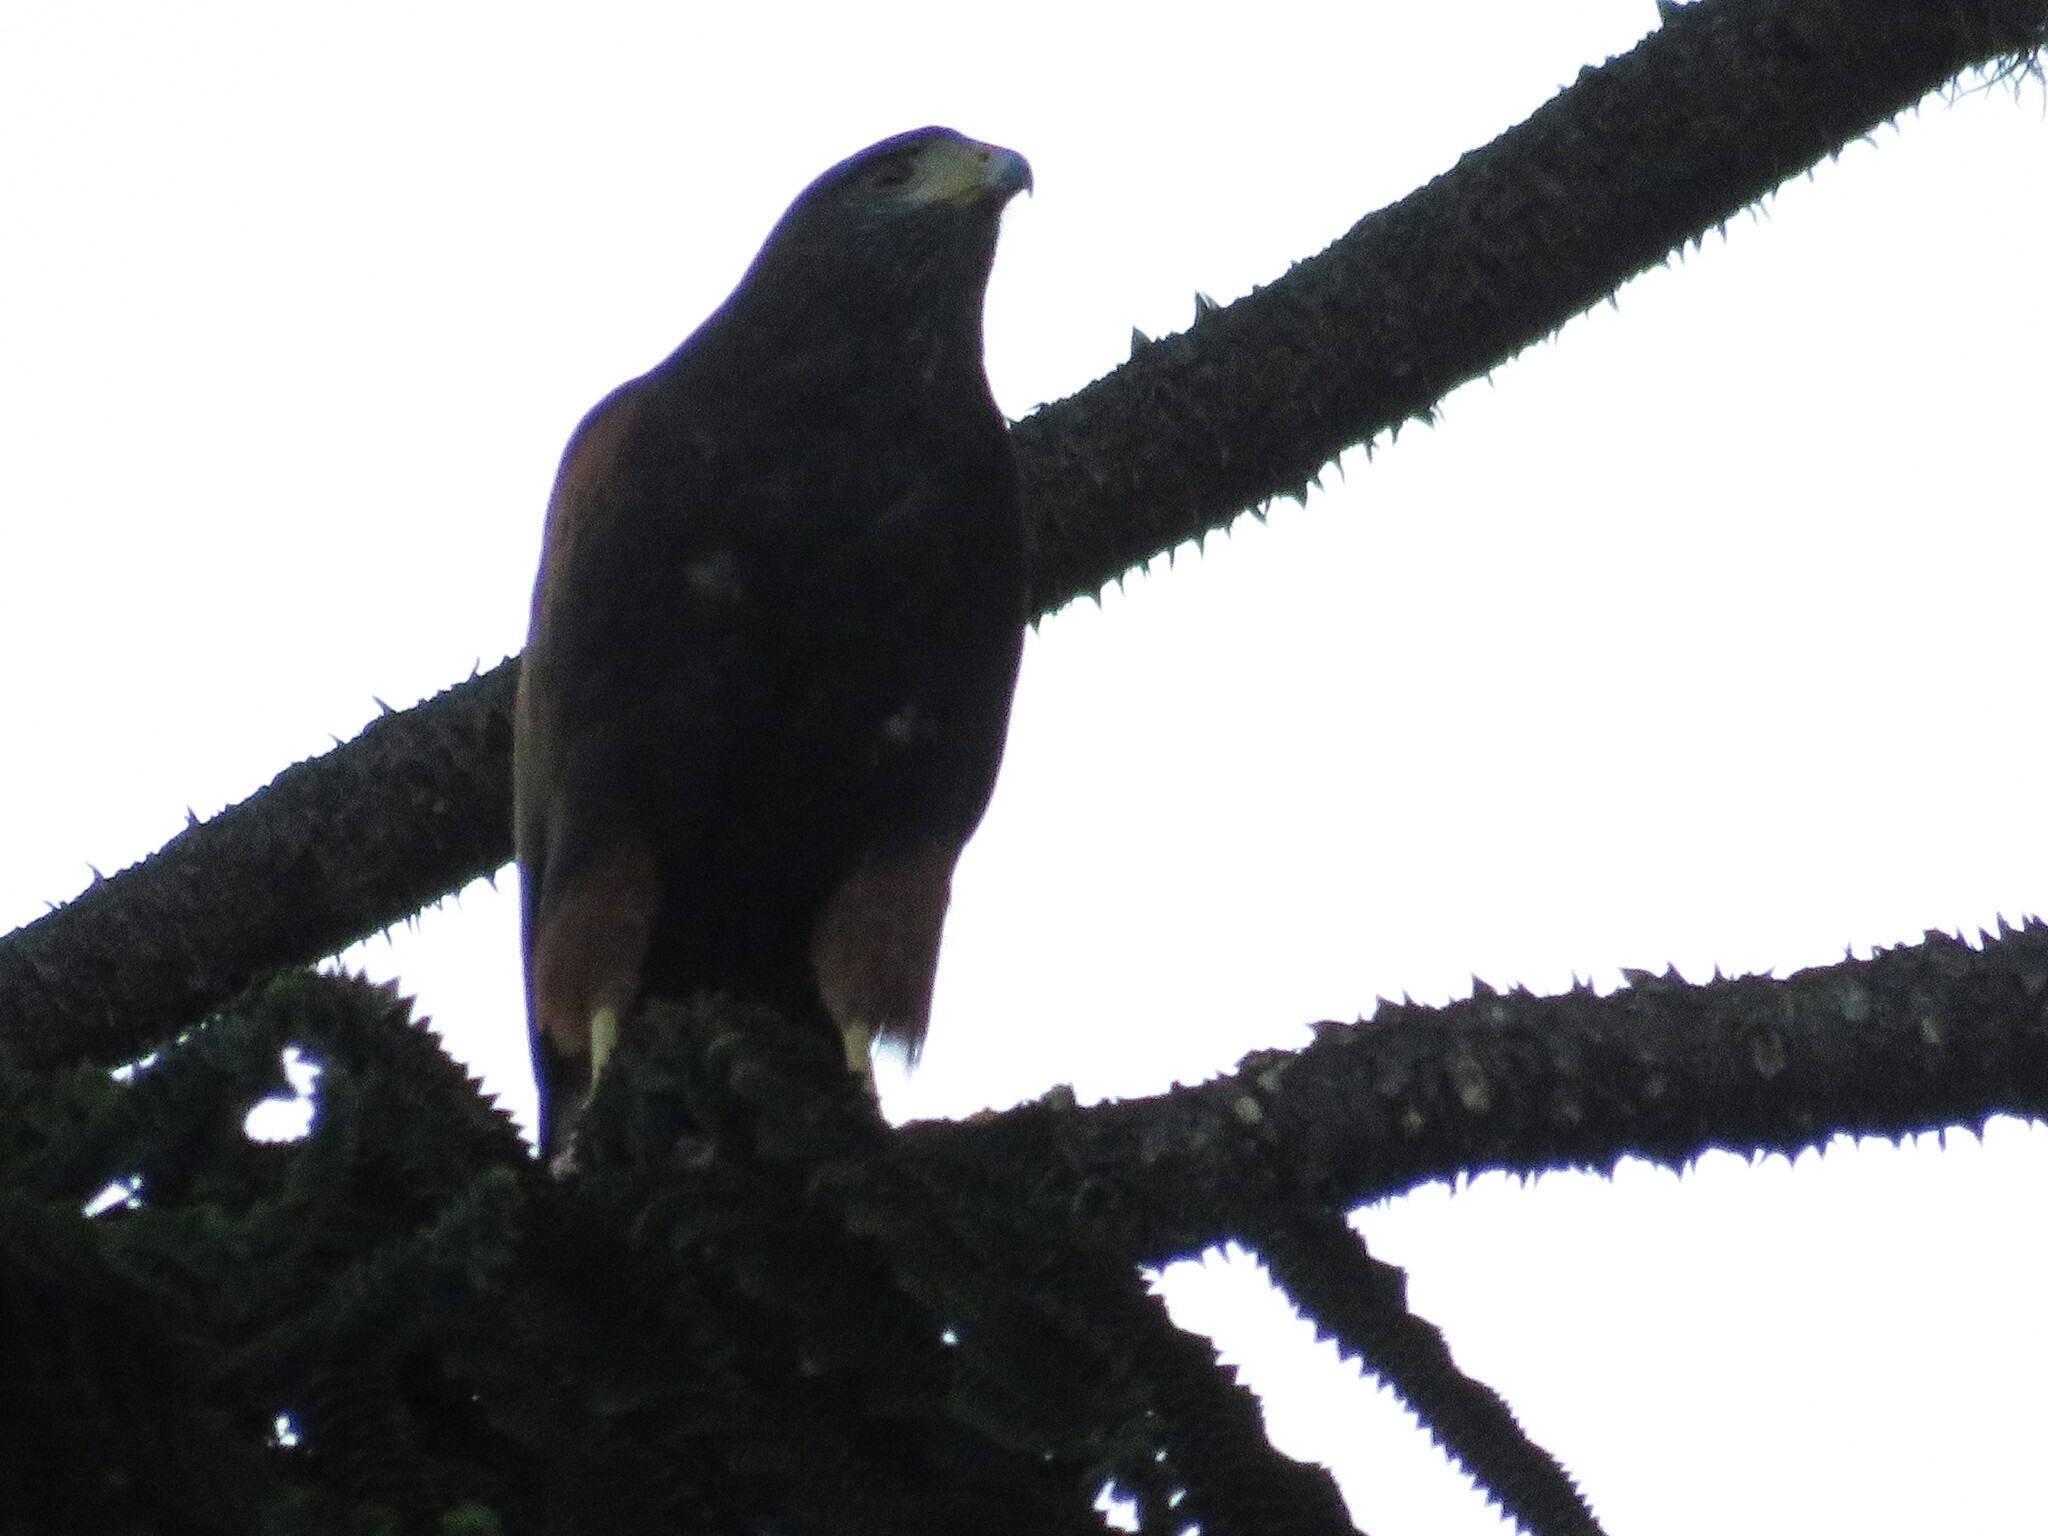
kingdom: Animalia
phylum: Chordata
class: Aves
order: Accipitriformes
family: Accipitridae
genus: Parabuteo
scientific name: Parabuteo unicinctus
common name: Harris's hawk
